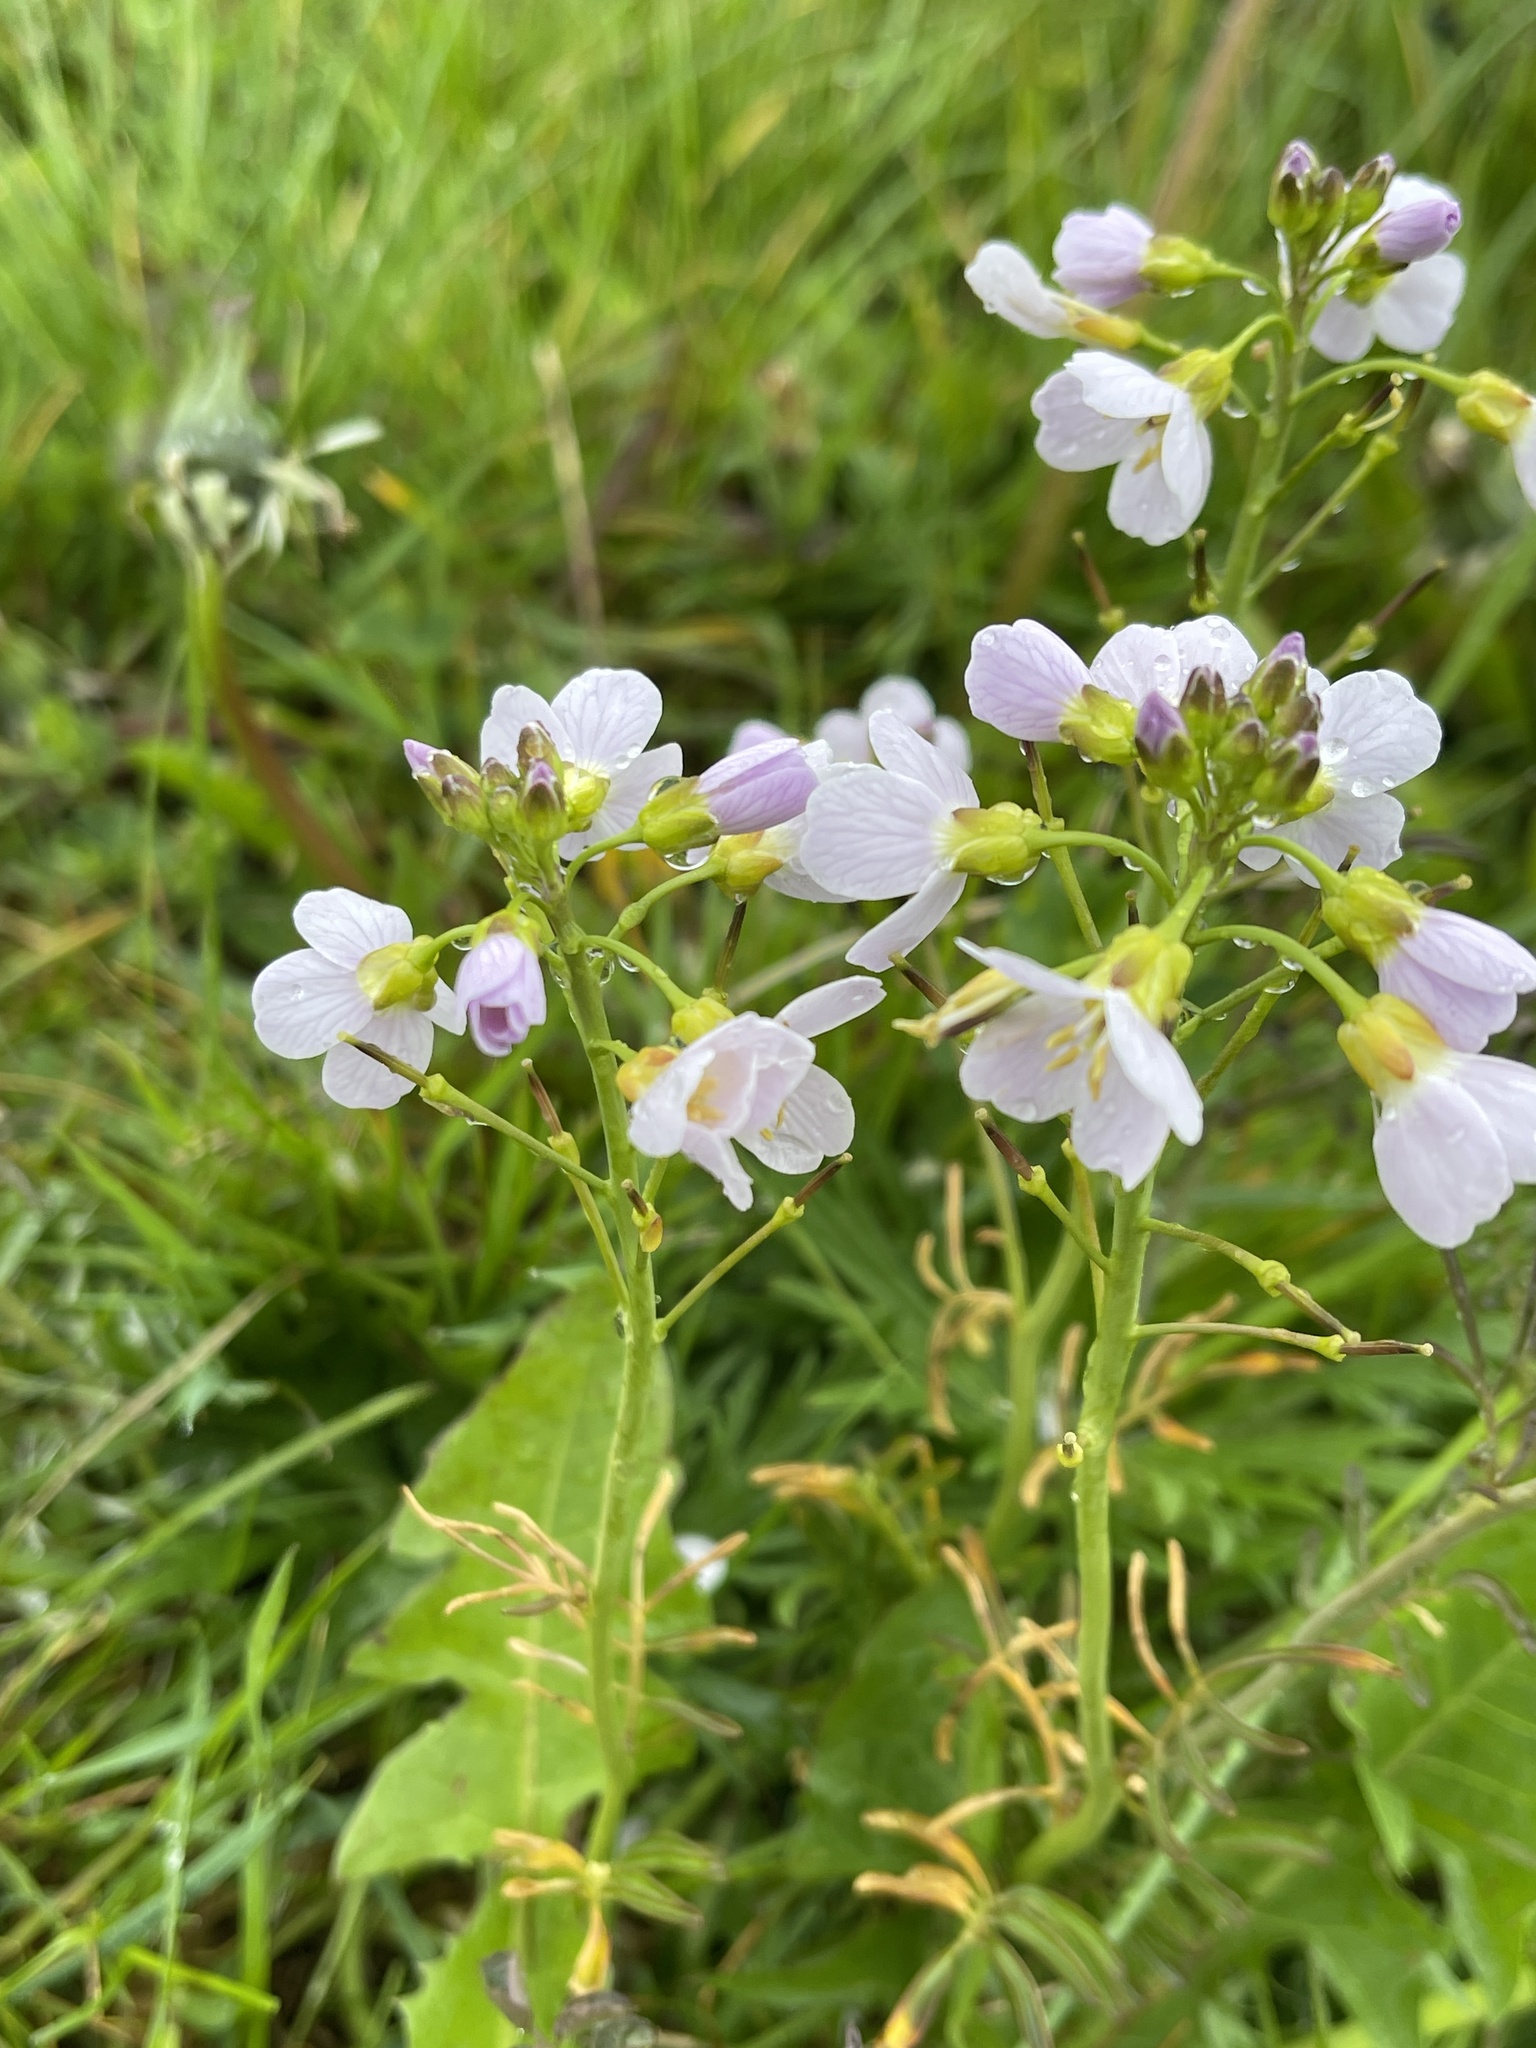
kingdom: Plantae
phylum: Tracheophyta
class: Magnoliopsida
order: Brassicales
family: Brassicaceae
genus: Cardamine
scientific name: Cardamine pratensis
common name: Cuckoo flower
